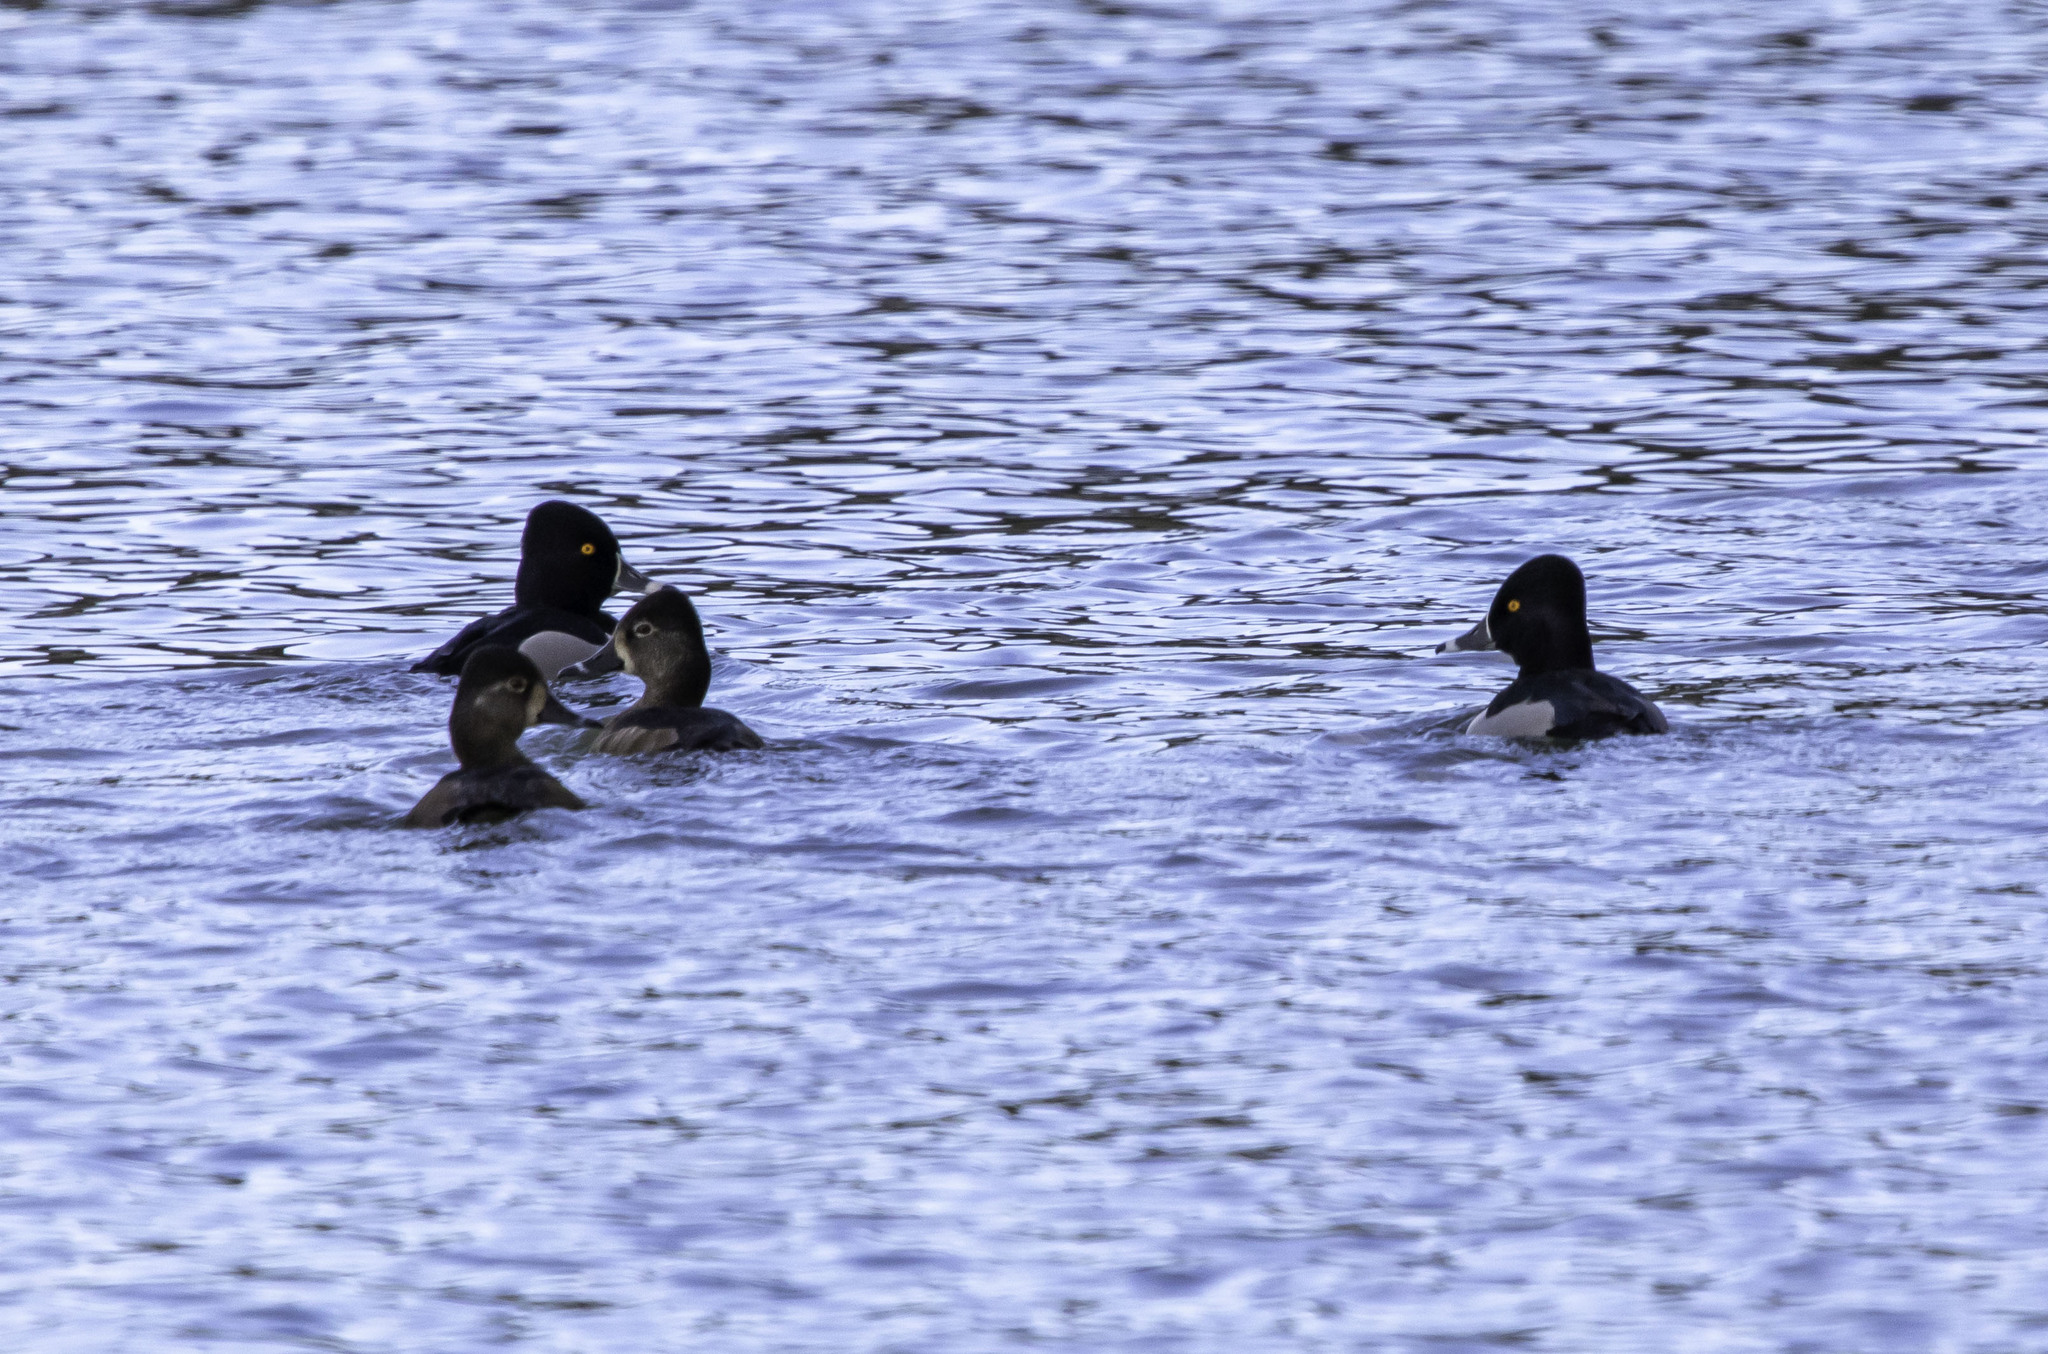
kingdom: Animalia
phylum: Chordata
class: Aves
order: Anseriformes
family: Anatidae
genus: Aythya
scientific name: Aythya collaris
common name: Ring-necked duck
